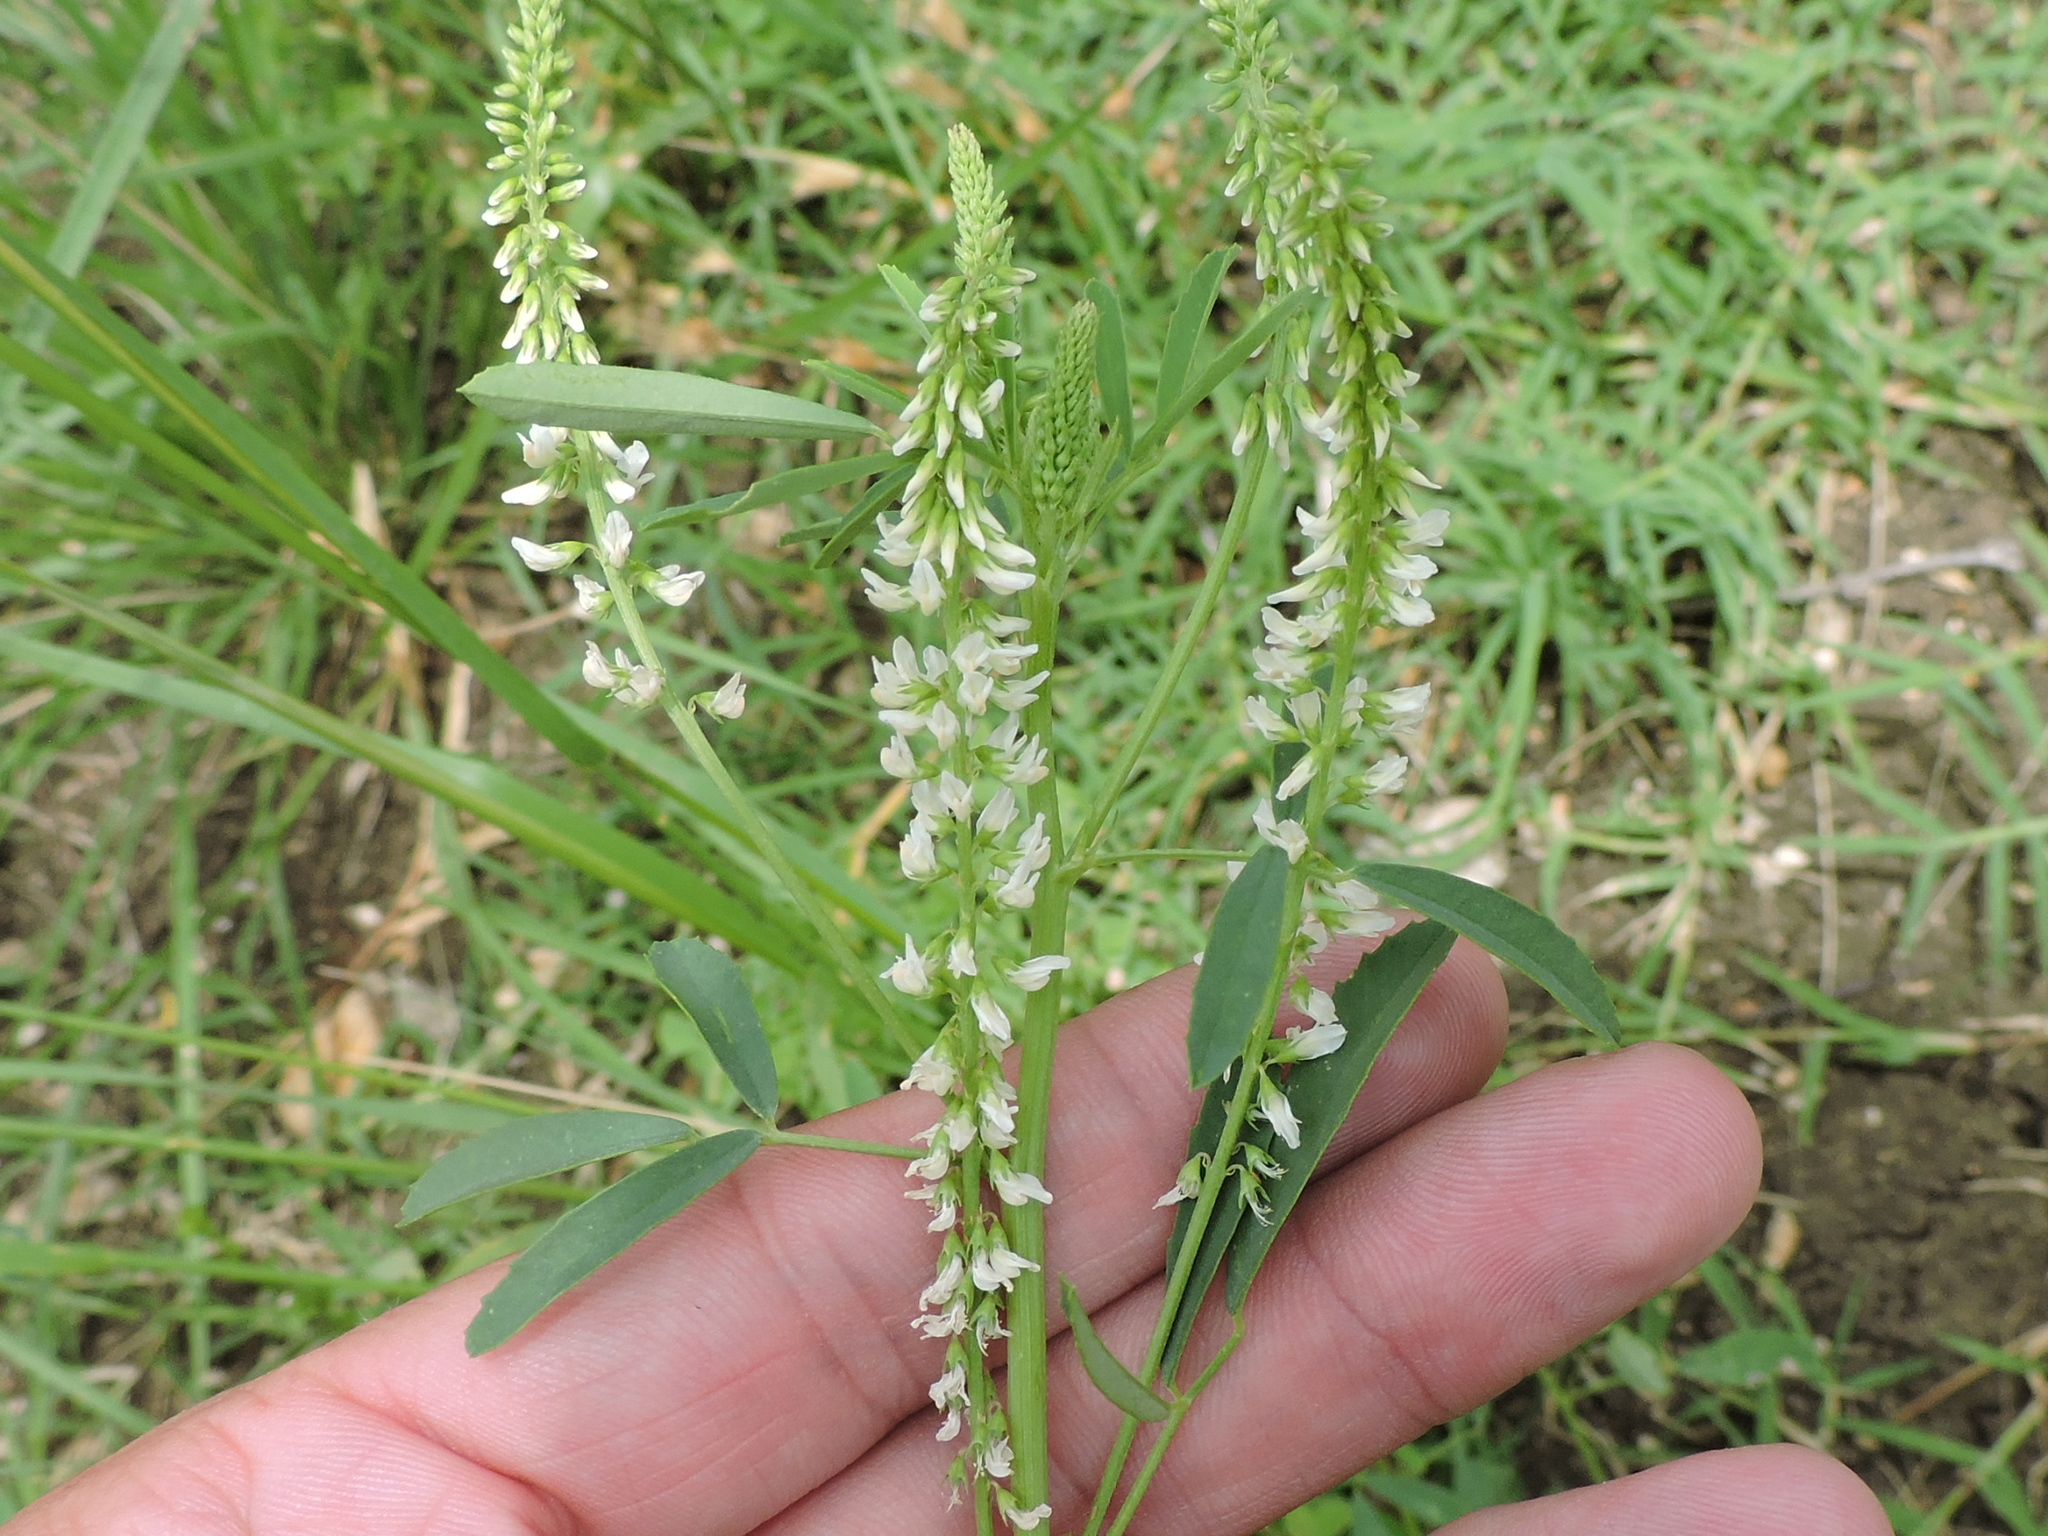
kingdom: Plantae
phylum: Tracheophyta
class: Magnoliopsida
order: Fabales
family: Fabaceae
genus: Melilotus
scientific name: Melilotus albus
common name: White melilot
